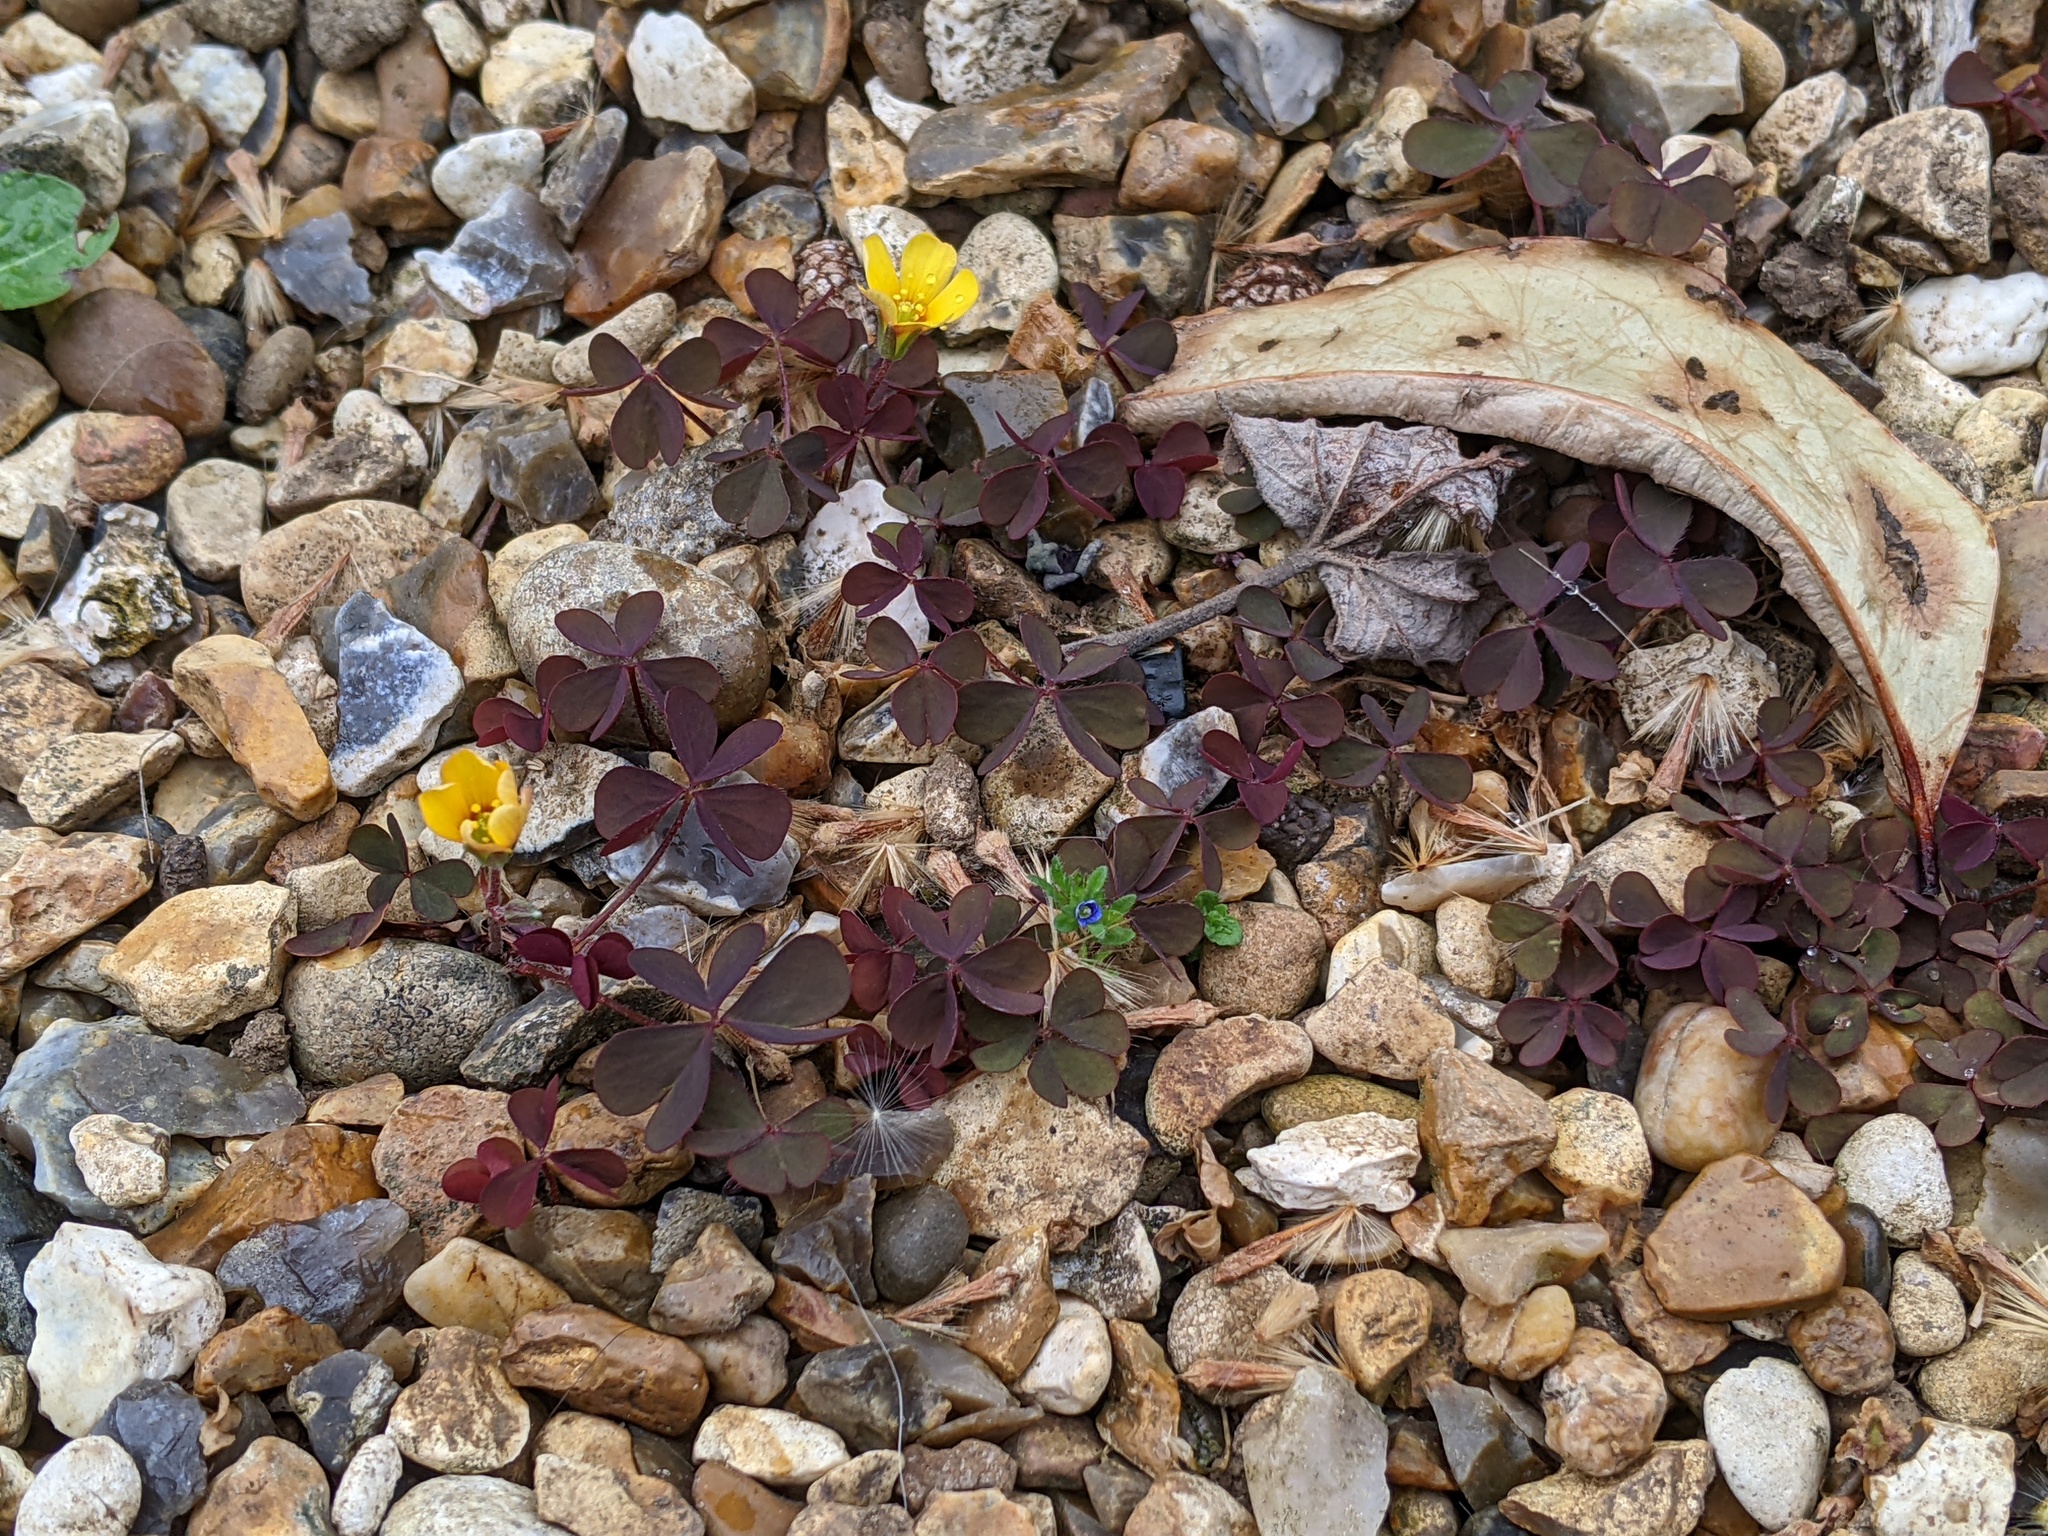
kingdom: Plantae
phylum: Tracheophyta
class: Magnoliopsida
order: Oxalidales
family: Oxalidaceae
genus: Oxalis
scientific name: Oxalis corniculata
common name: Procumbent yellow-sorrel
